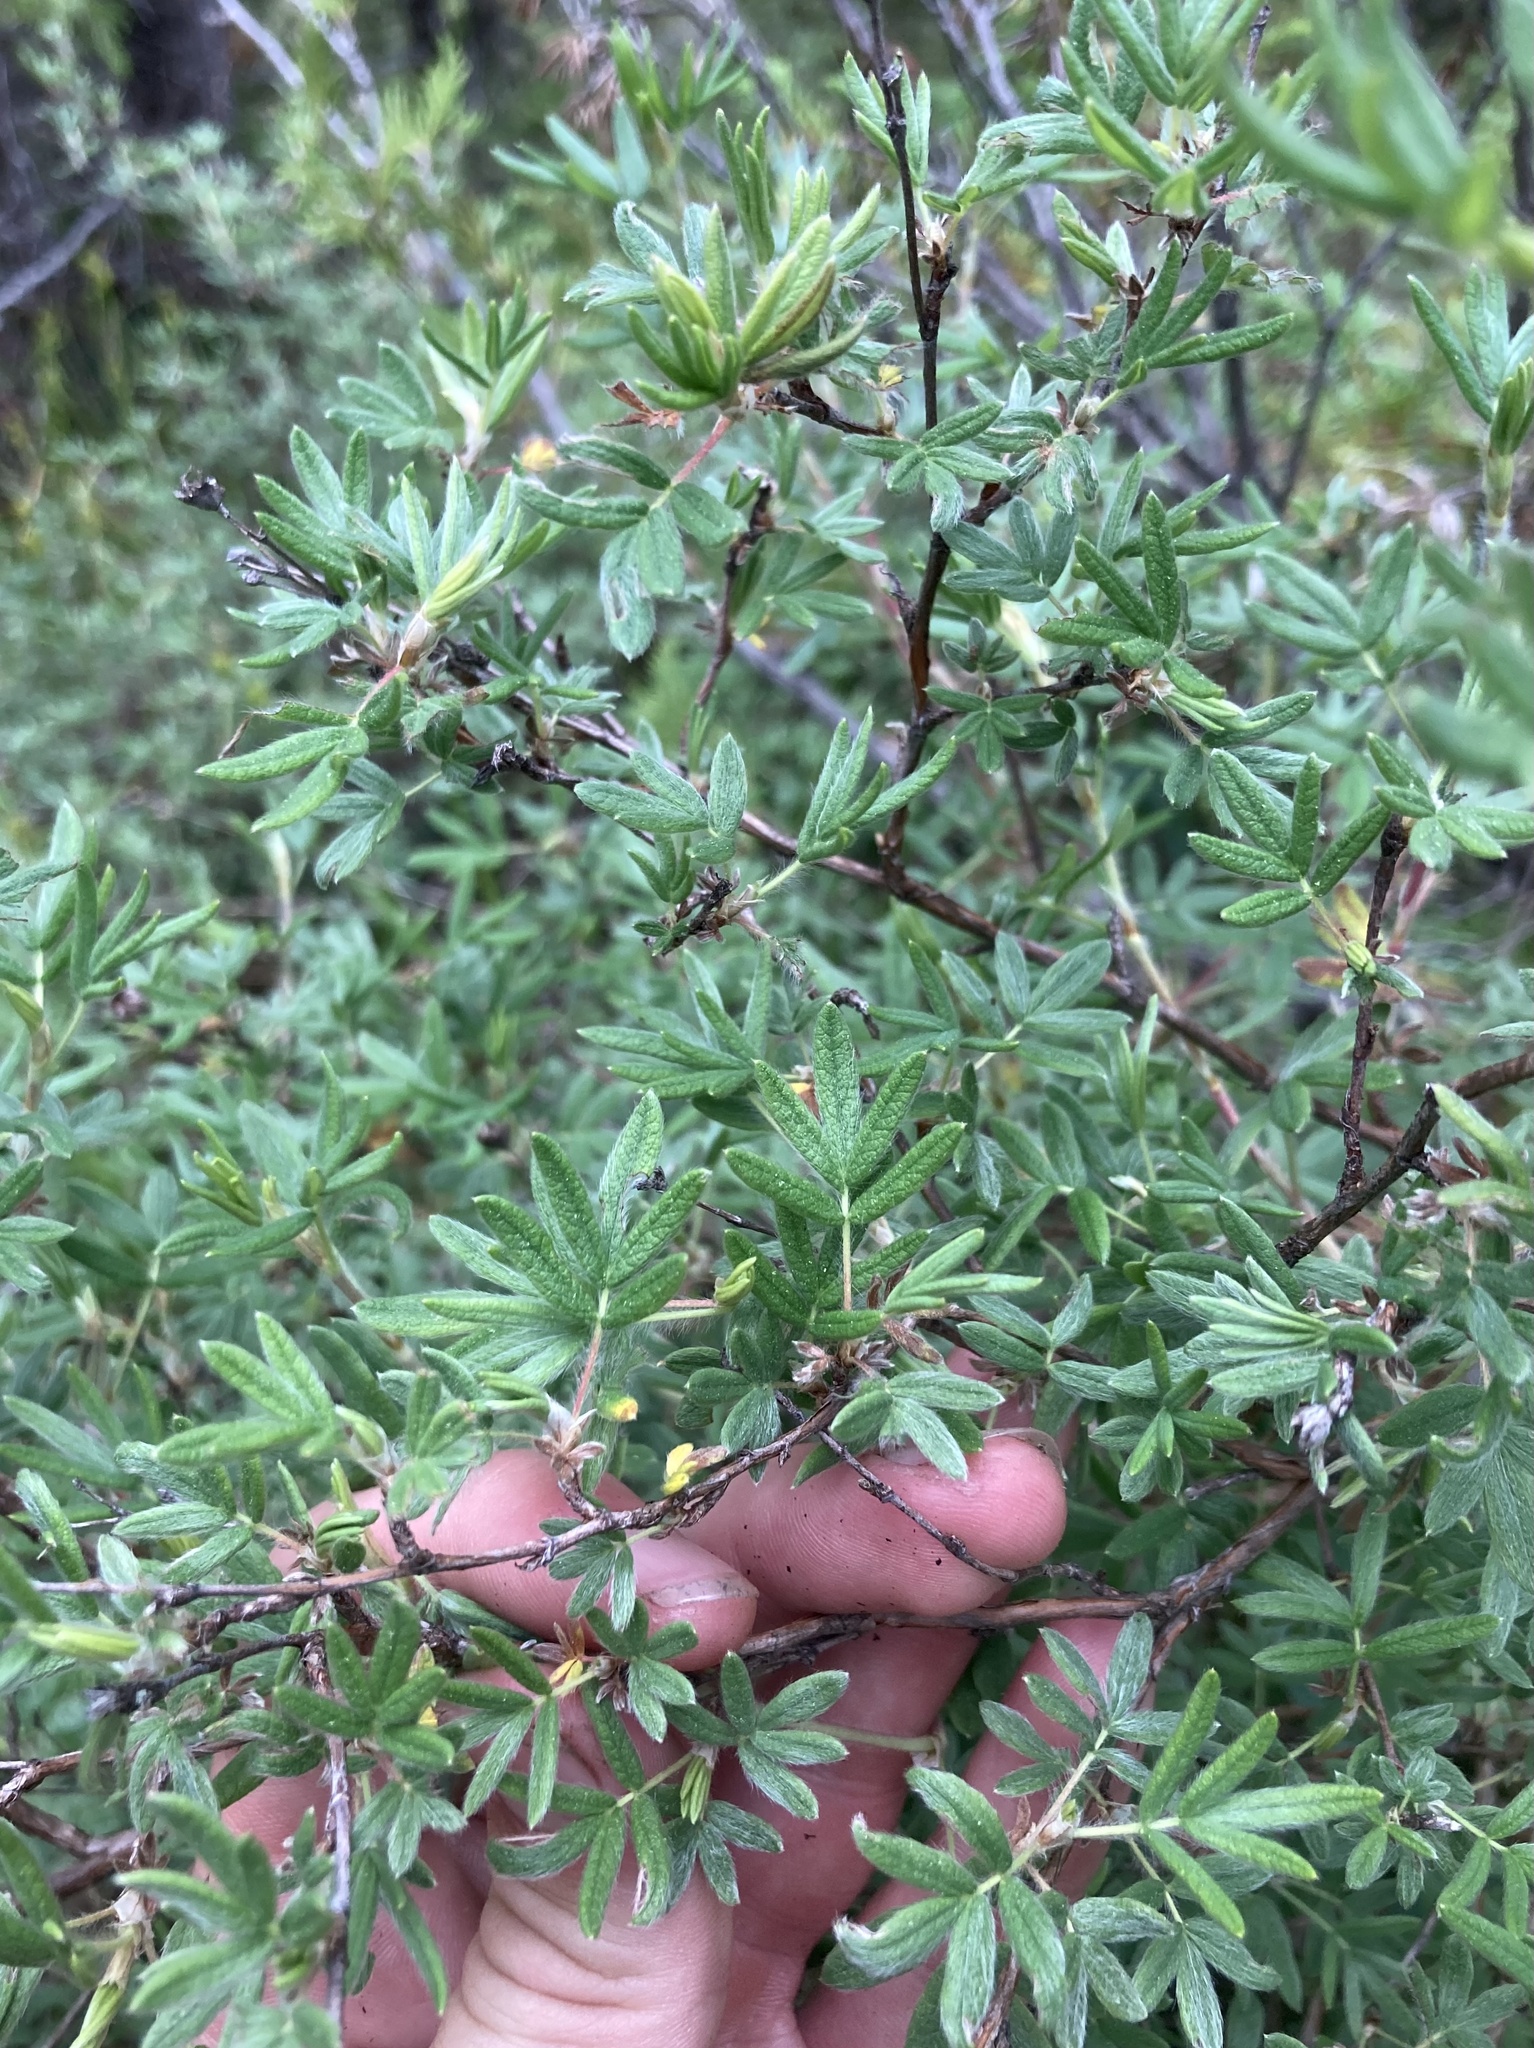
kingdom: Plantae
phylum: Tracheophyta
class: Magnoliopsida
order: Rosales
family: Rosaceae
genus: Dasiphora
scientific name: Dasiphora fruticosa
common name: Shrubby cinquefoil
